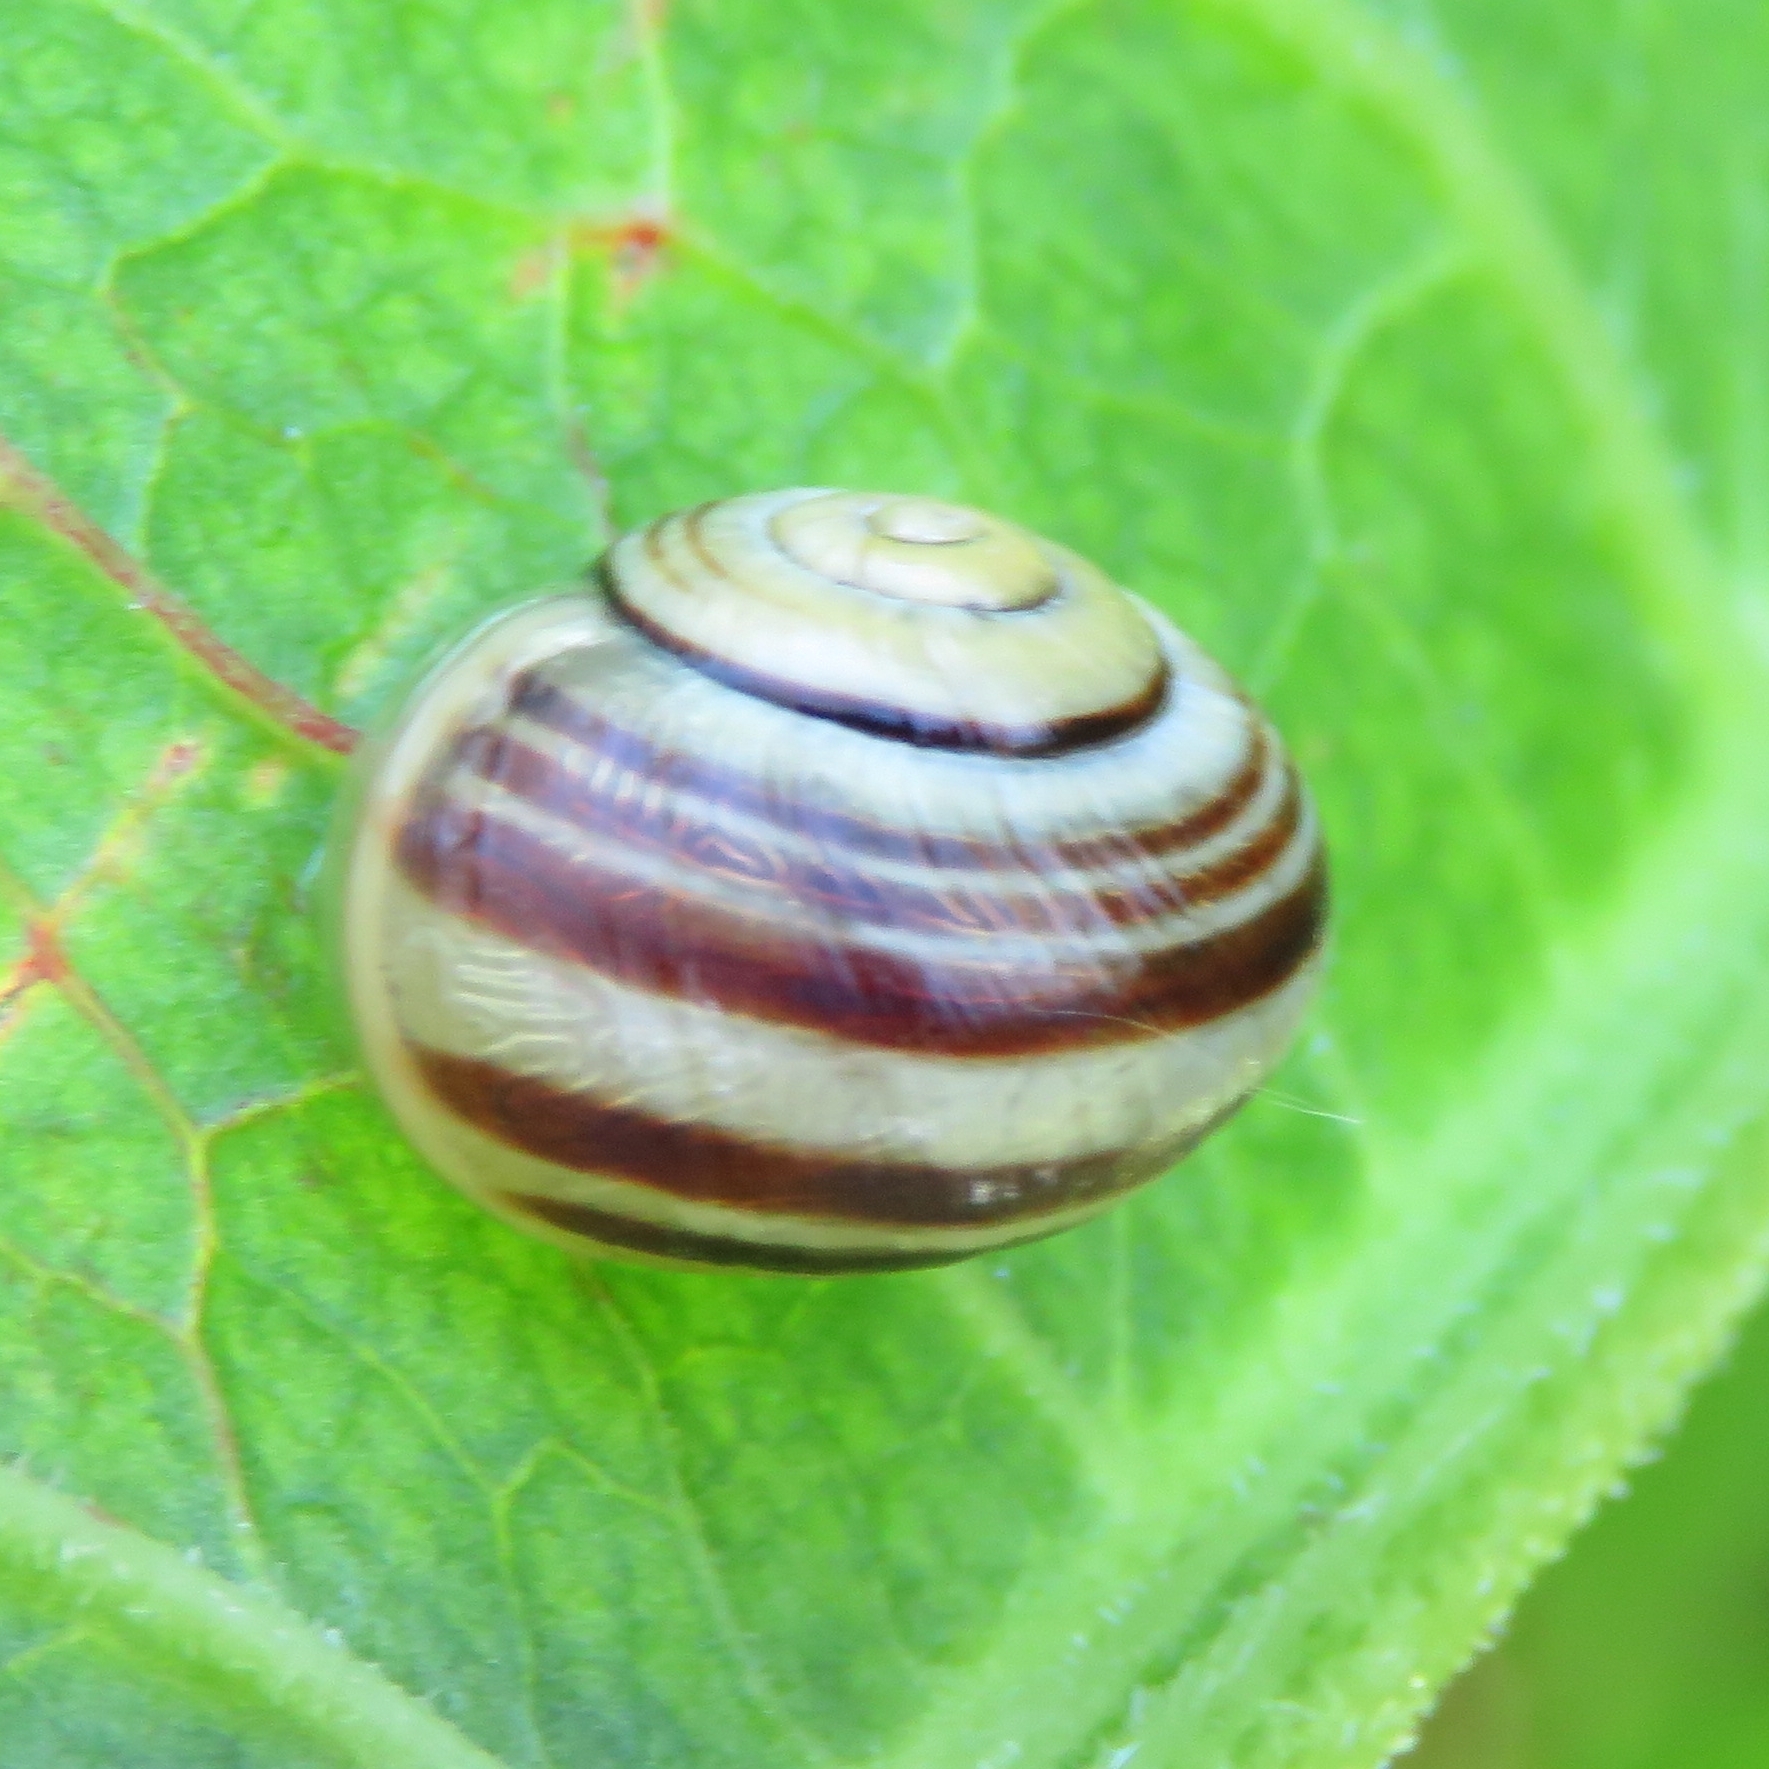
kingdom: Animalia
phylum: Mollusca
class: Gastropoda
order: Stylommatophora
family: Helicidae
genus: Cepaea
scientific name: Cepaea hortensis
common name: White-lip gardensnail
